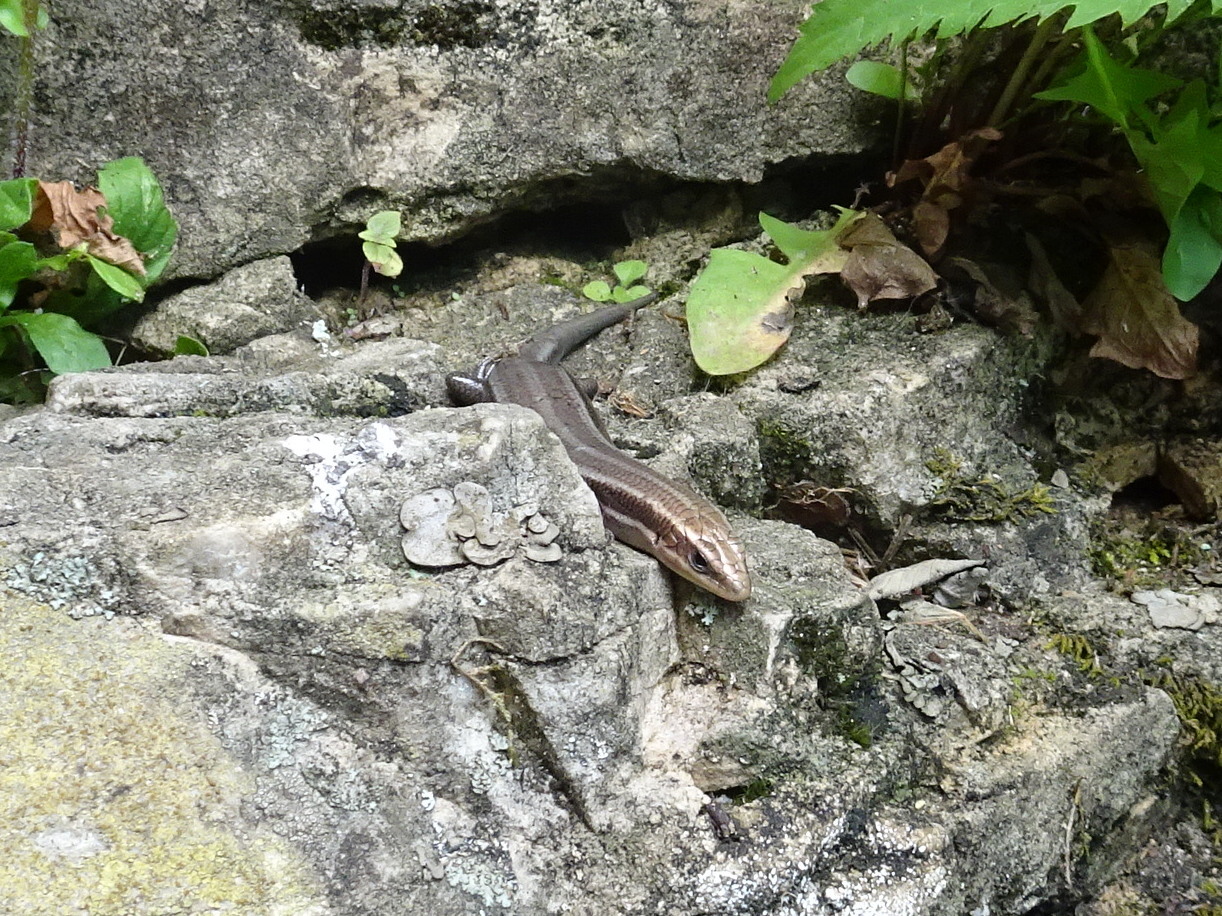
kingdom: Animalia
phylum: Chordata
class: Squamata
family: Scincidae
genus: Plestiodon
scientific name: Plestiodon fasciatus
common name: Five-lined skink
